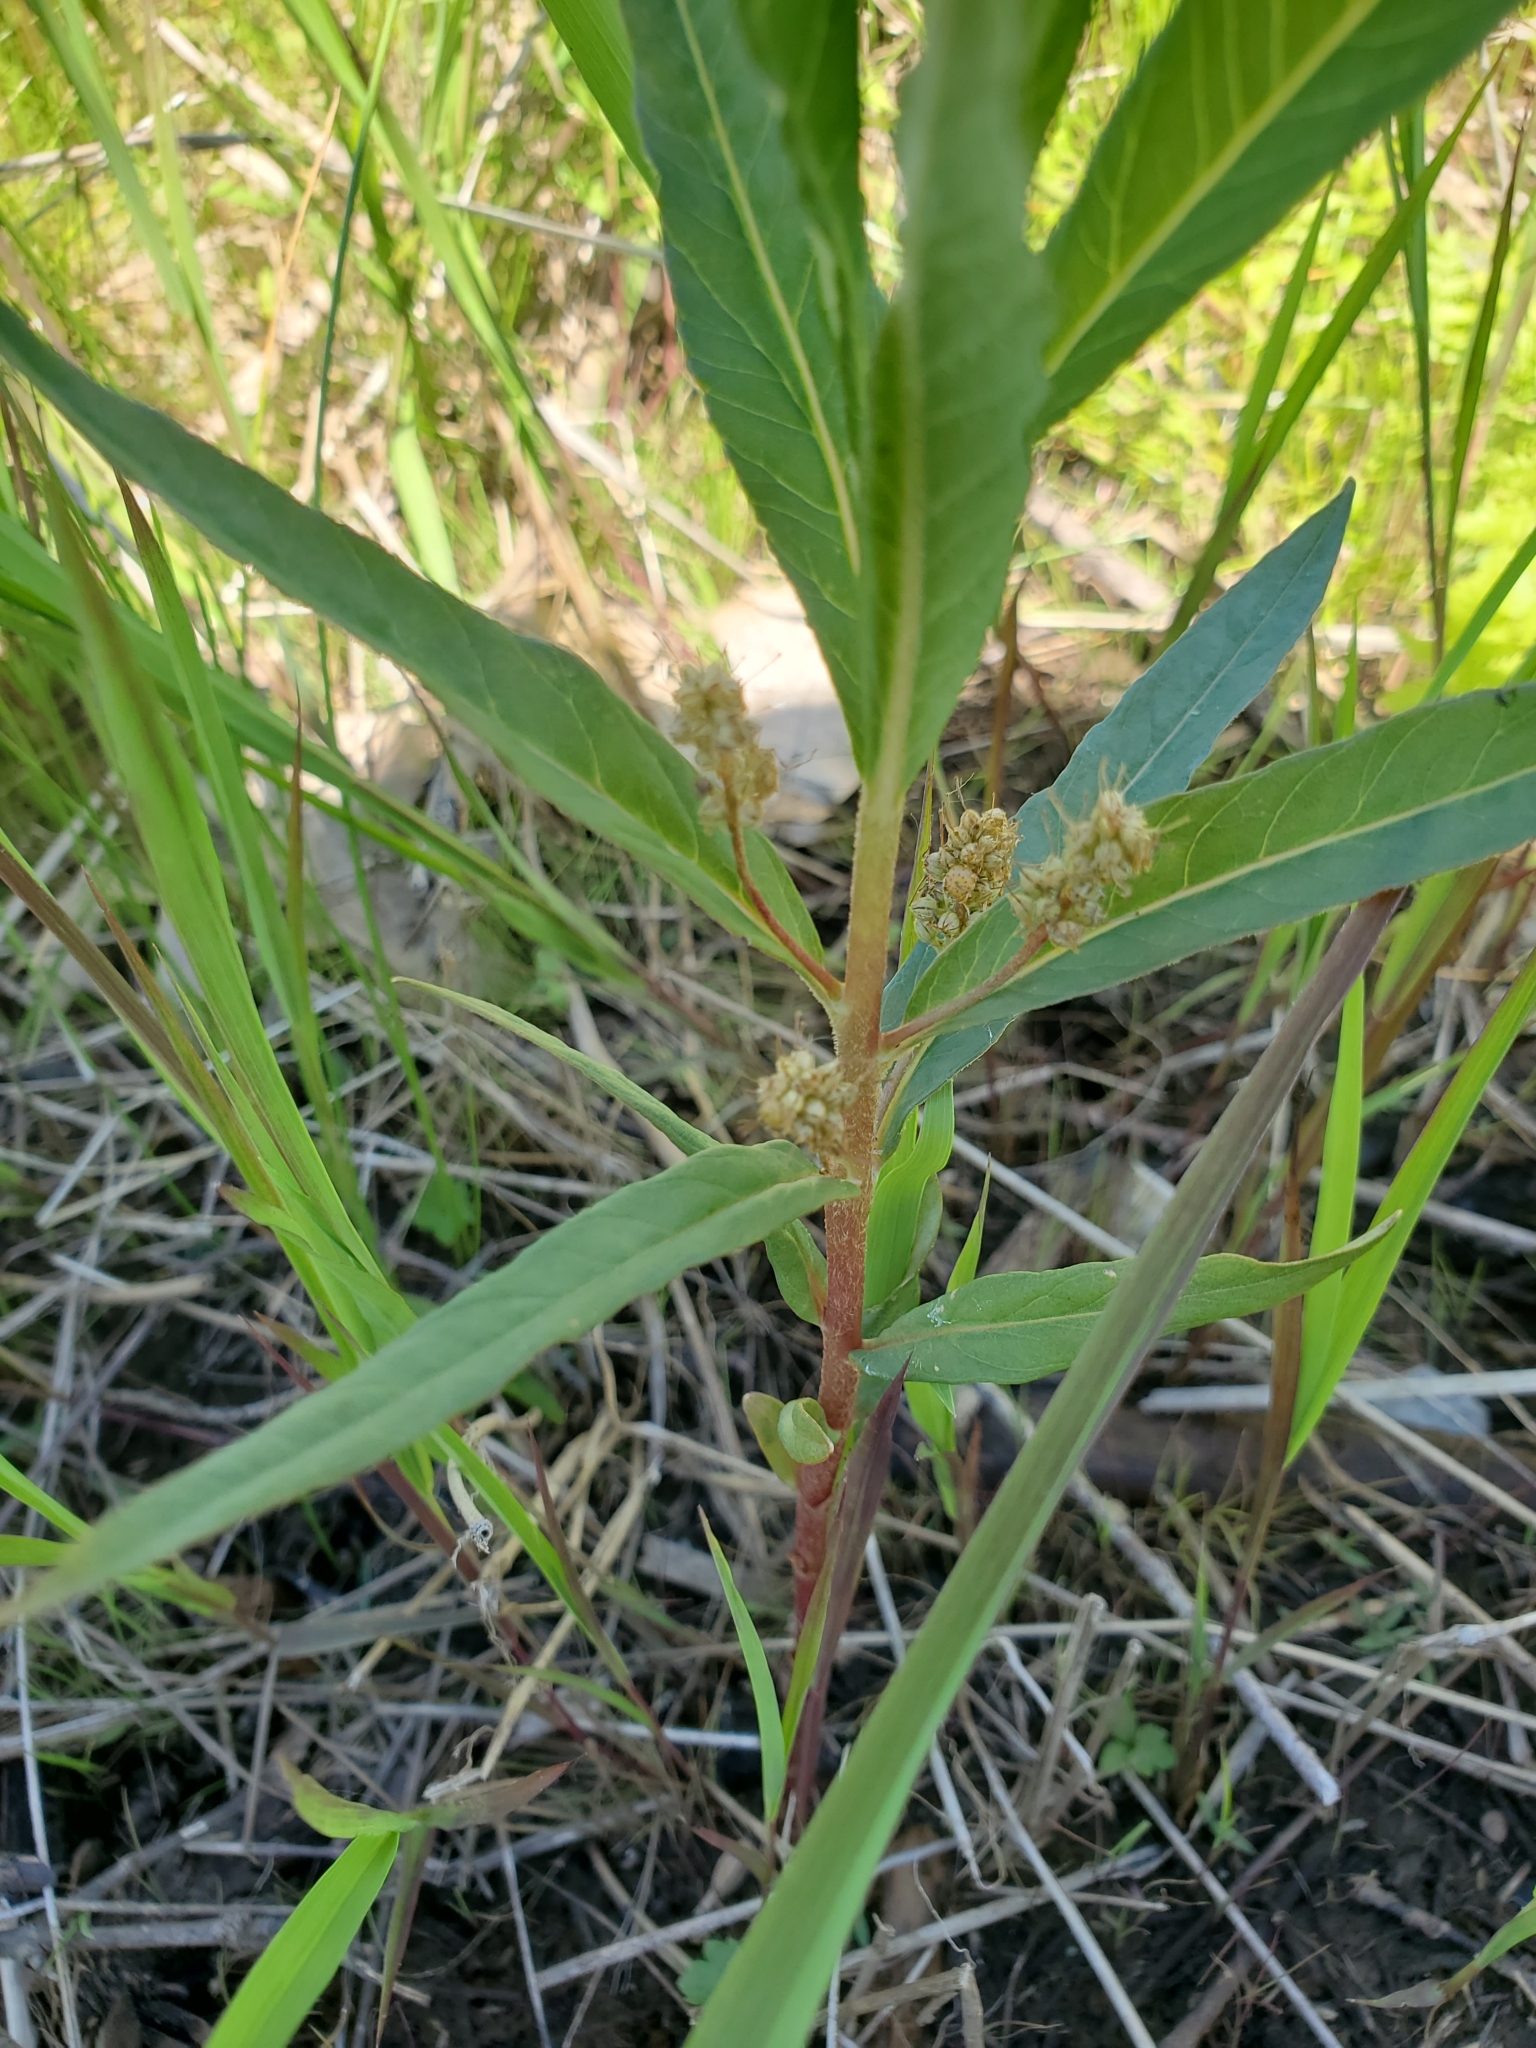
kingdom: Plantae
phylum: Tracheophyta
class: Magnoliopsida
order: Ericales
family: Primulaceae
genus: Lysimachia
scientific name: Lysimachia thyrsiflora
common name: Tufted loosestrife
